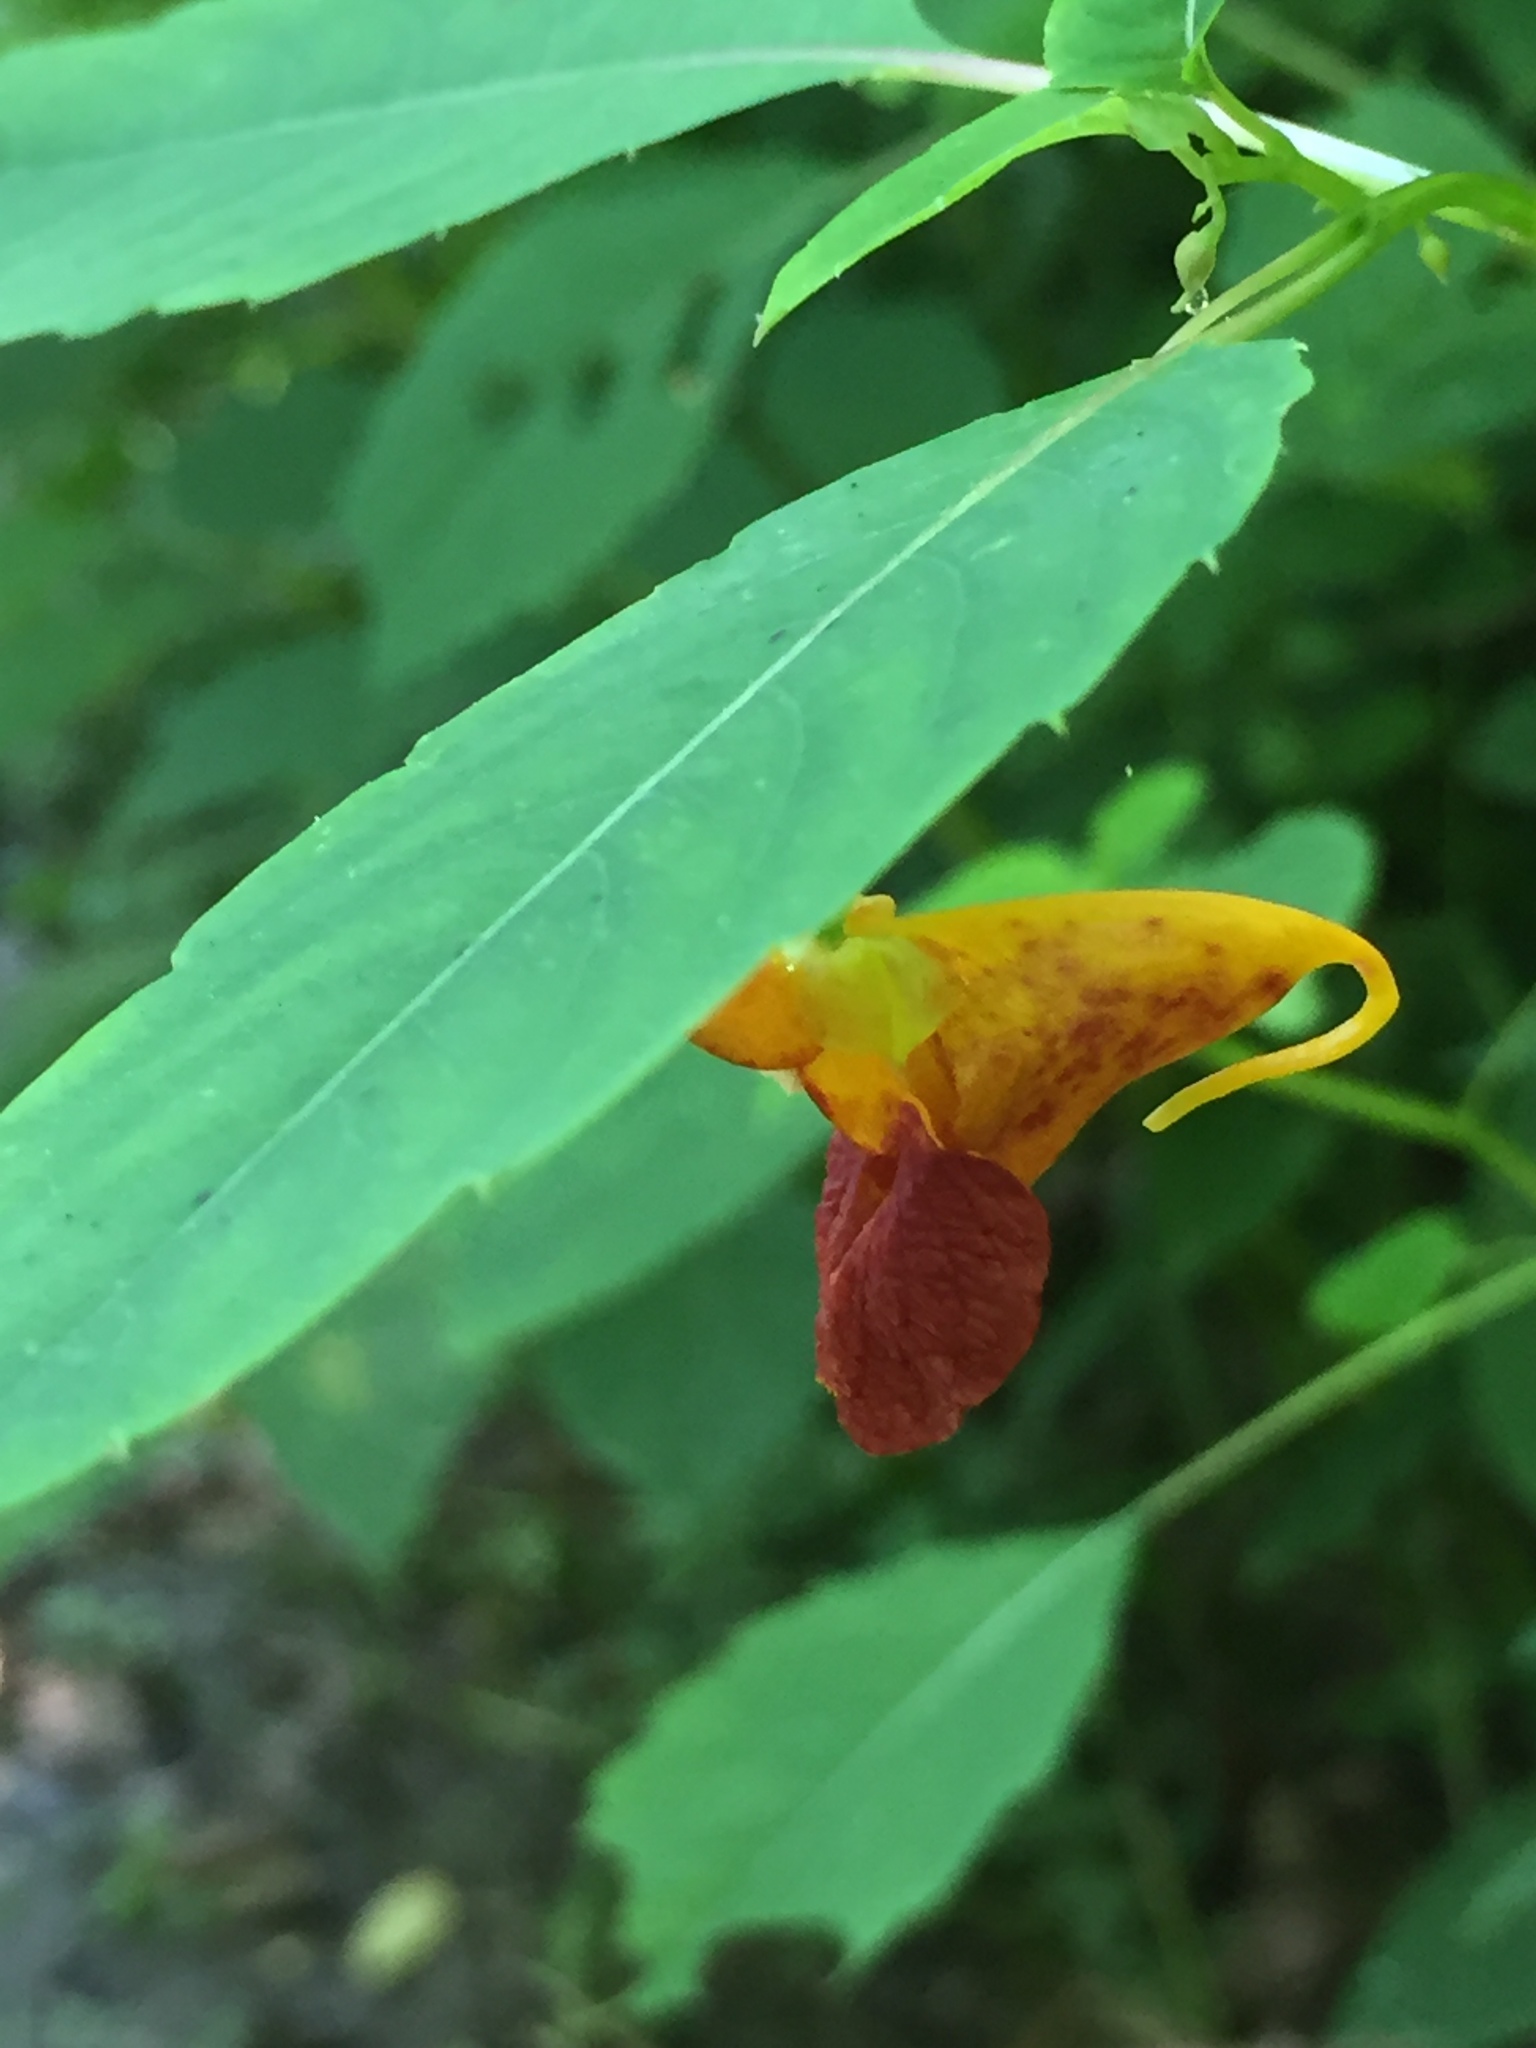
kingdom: Plantae
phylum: Tracheophyta
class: Magnoliopsida
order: Ericales
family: Balsaminaceae
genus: Impatiens
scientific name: Impatiens capensis
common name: Orange balsam
